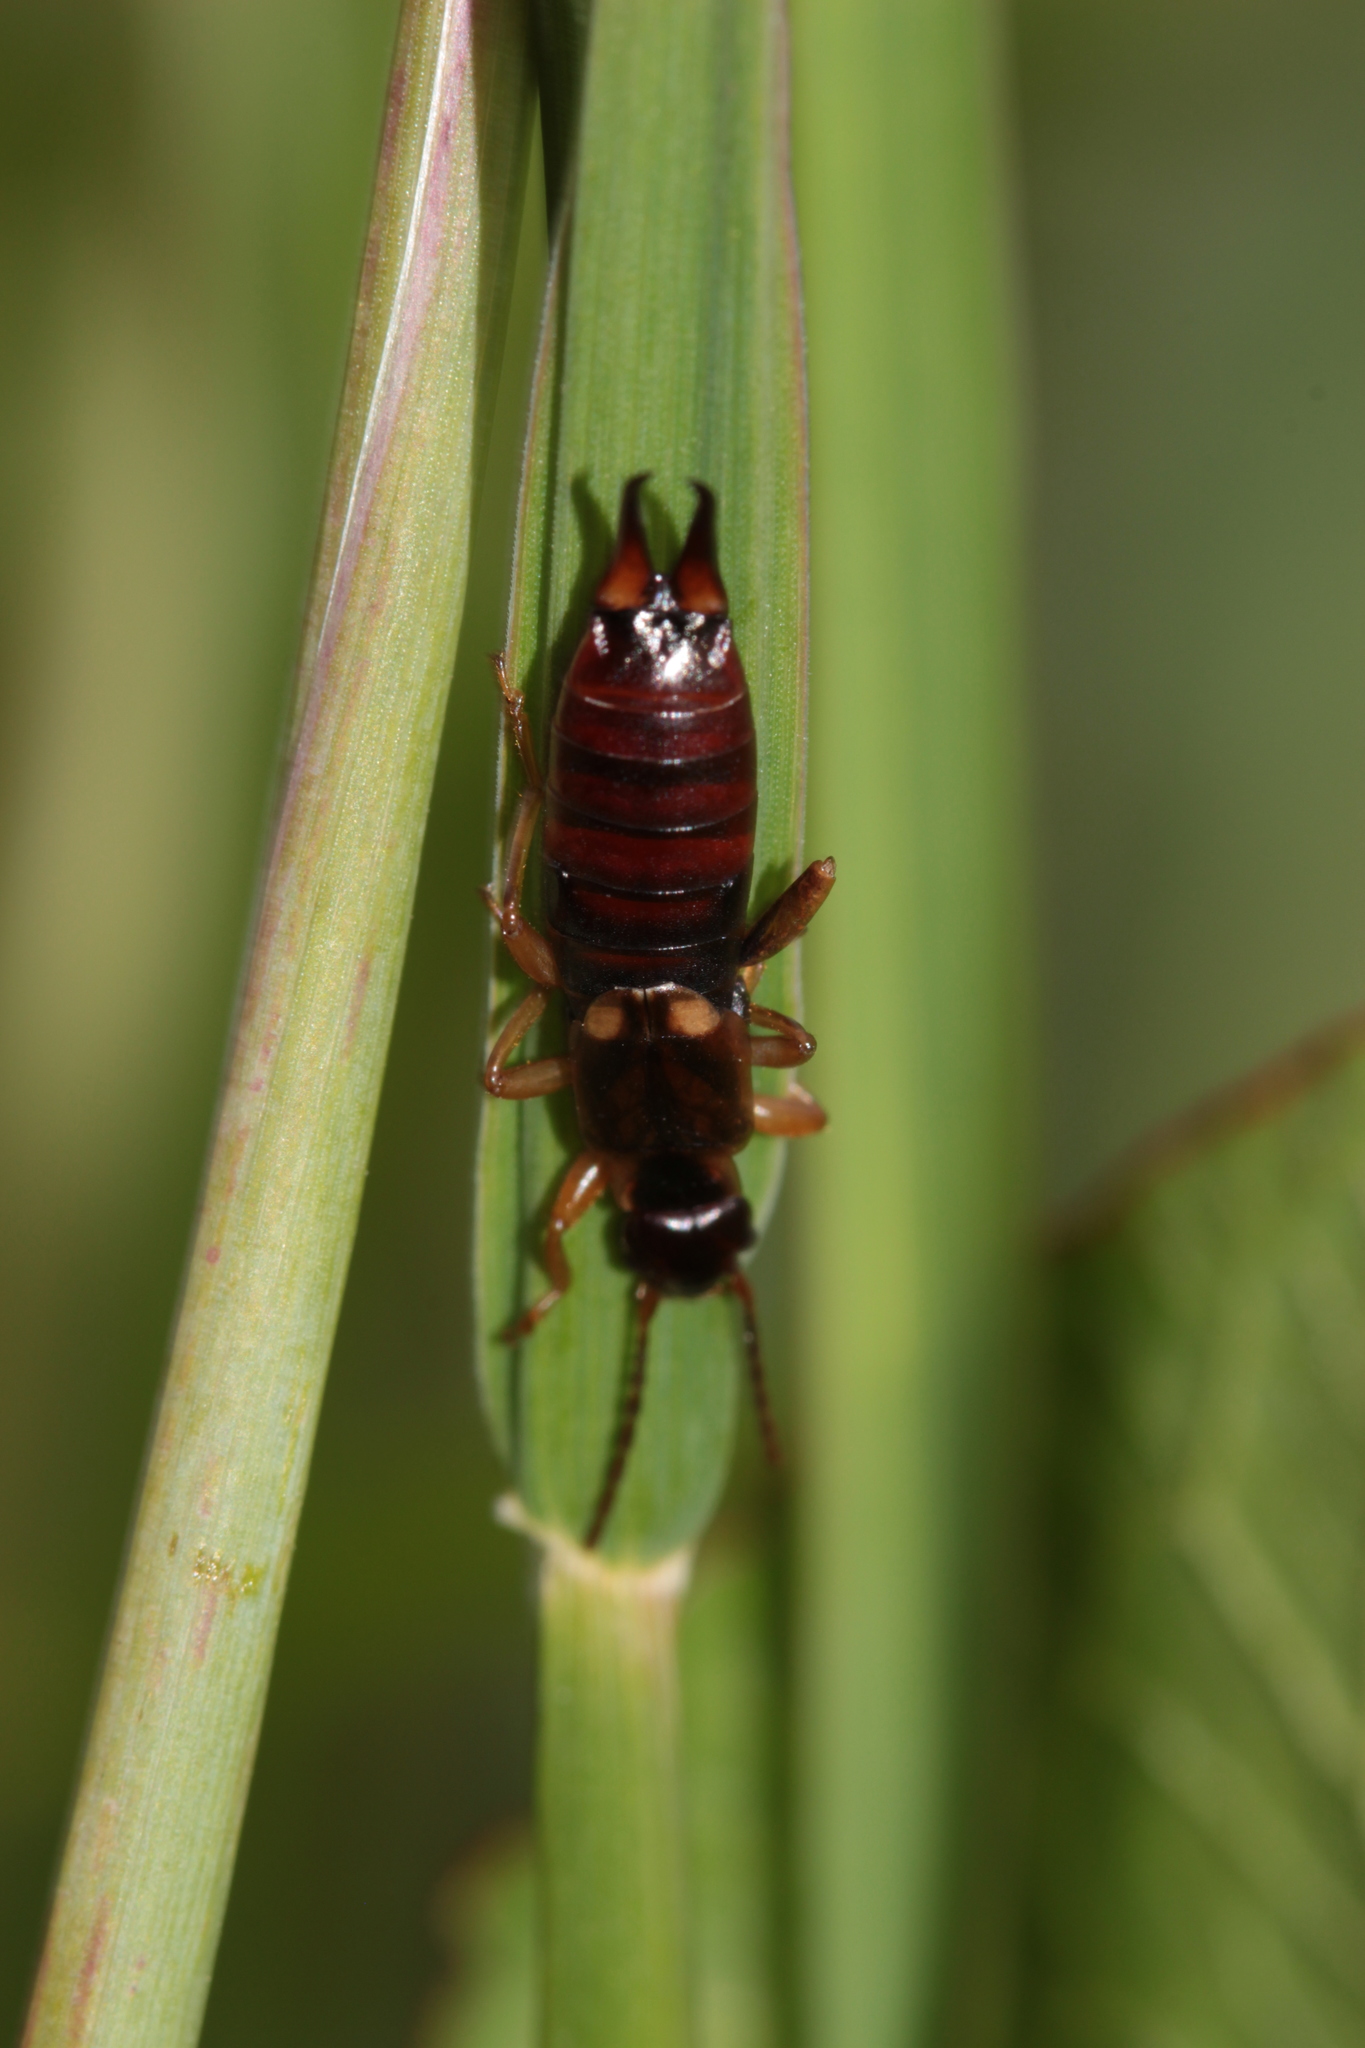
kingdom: Animalia
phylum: Arthropoda
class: Insecta
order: Dermaptera
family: Forficulidae
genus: Forficula
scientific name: Forficula
